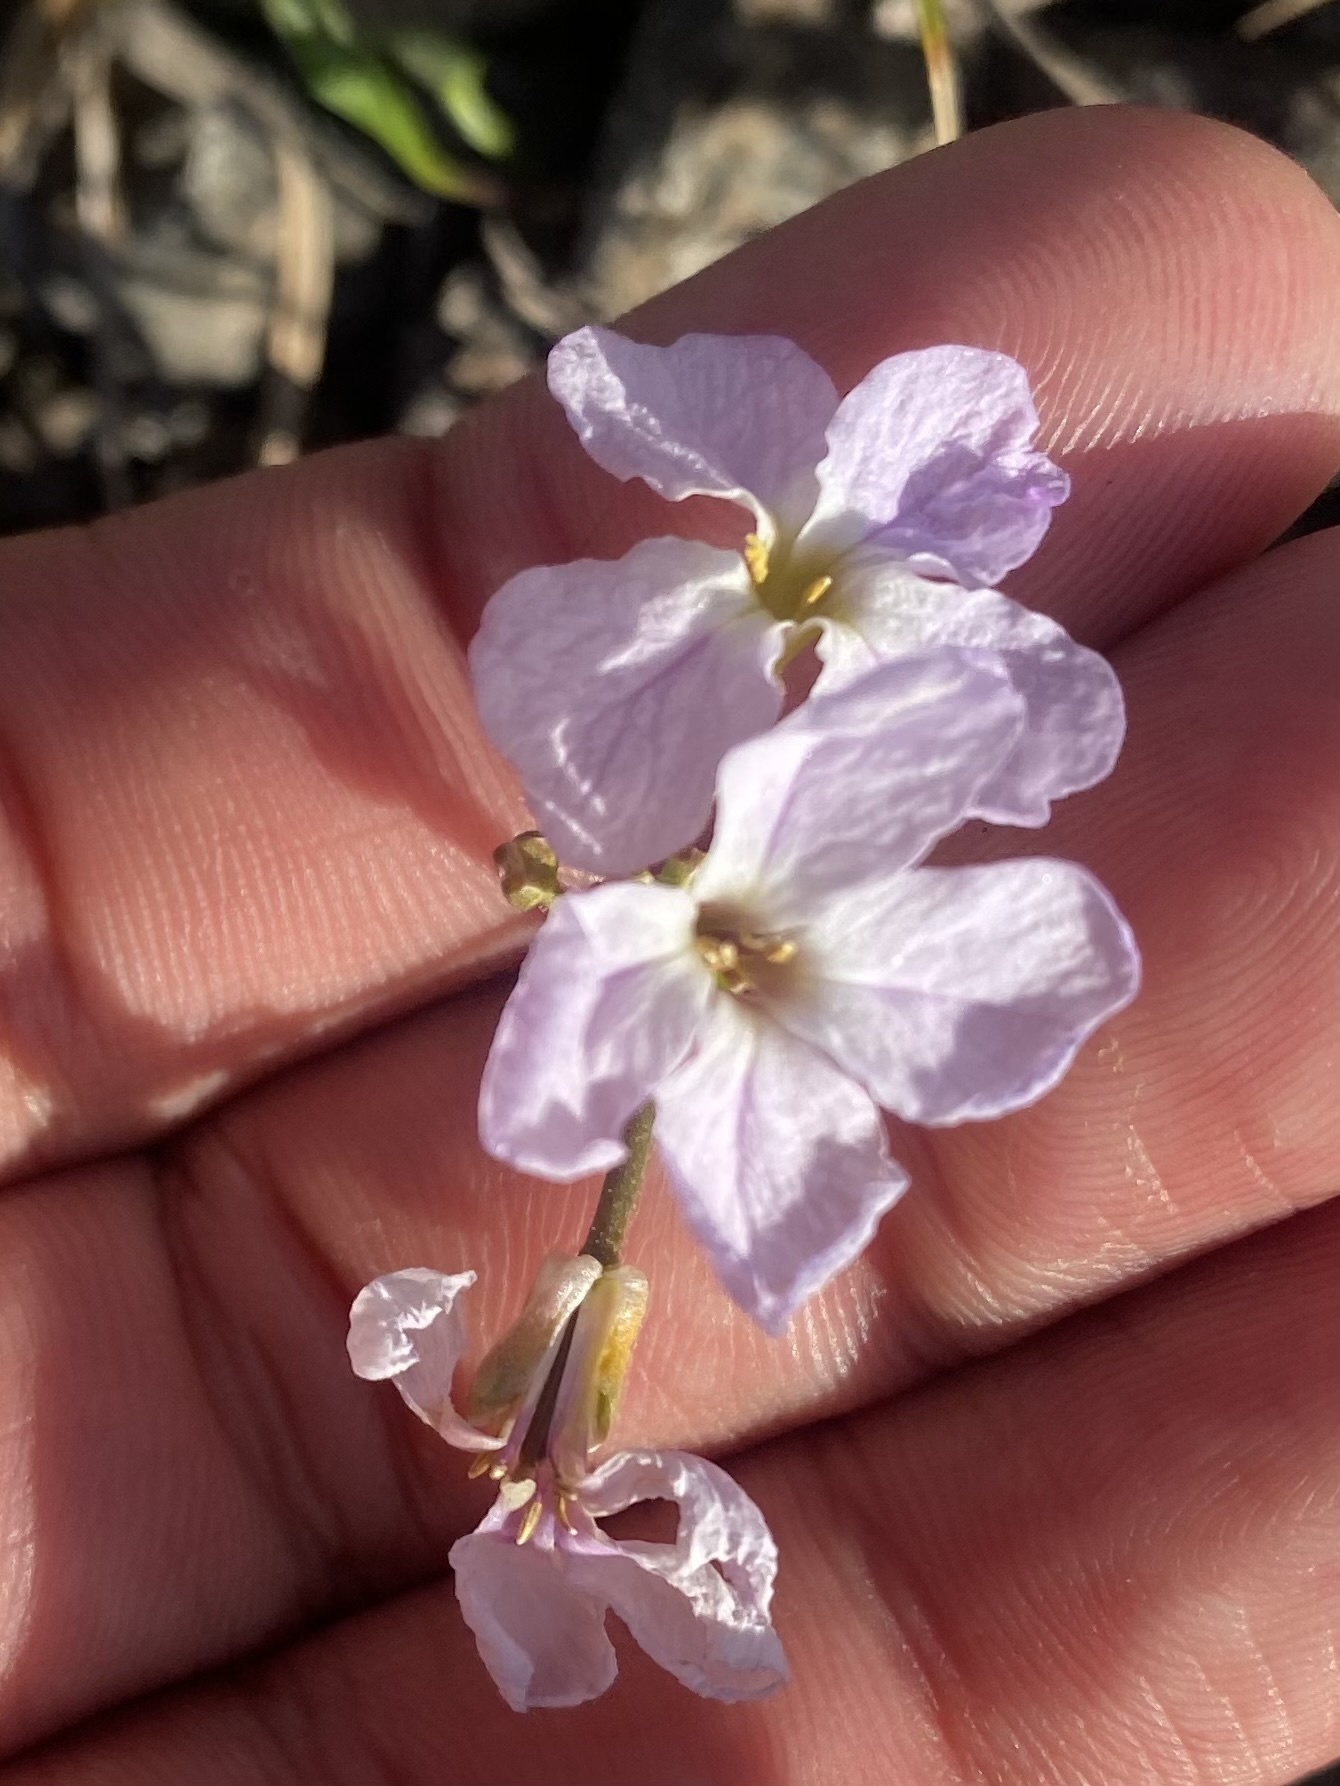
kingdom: Plantae
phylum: Tracheophyta
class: Magnoliopsida
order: Brassicales
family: Brassicaceae
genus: Parrya
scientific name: Parrya nudicaulis
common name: Naked-stemmed false wallflower
